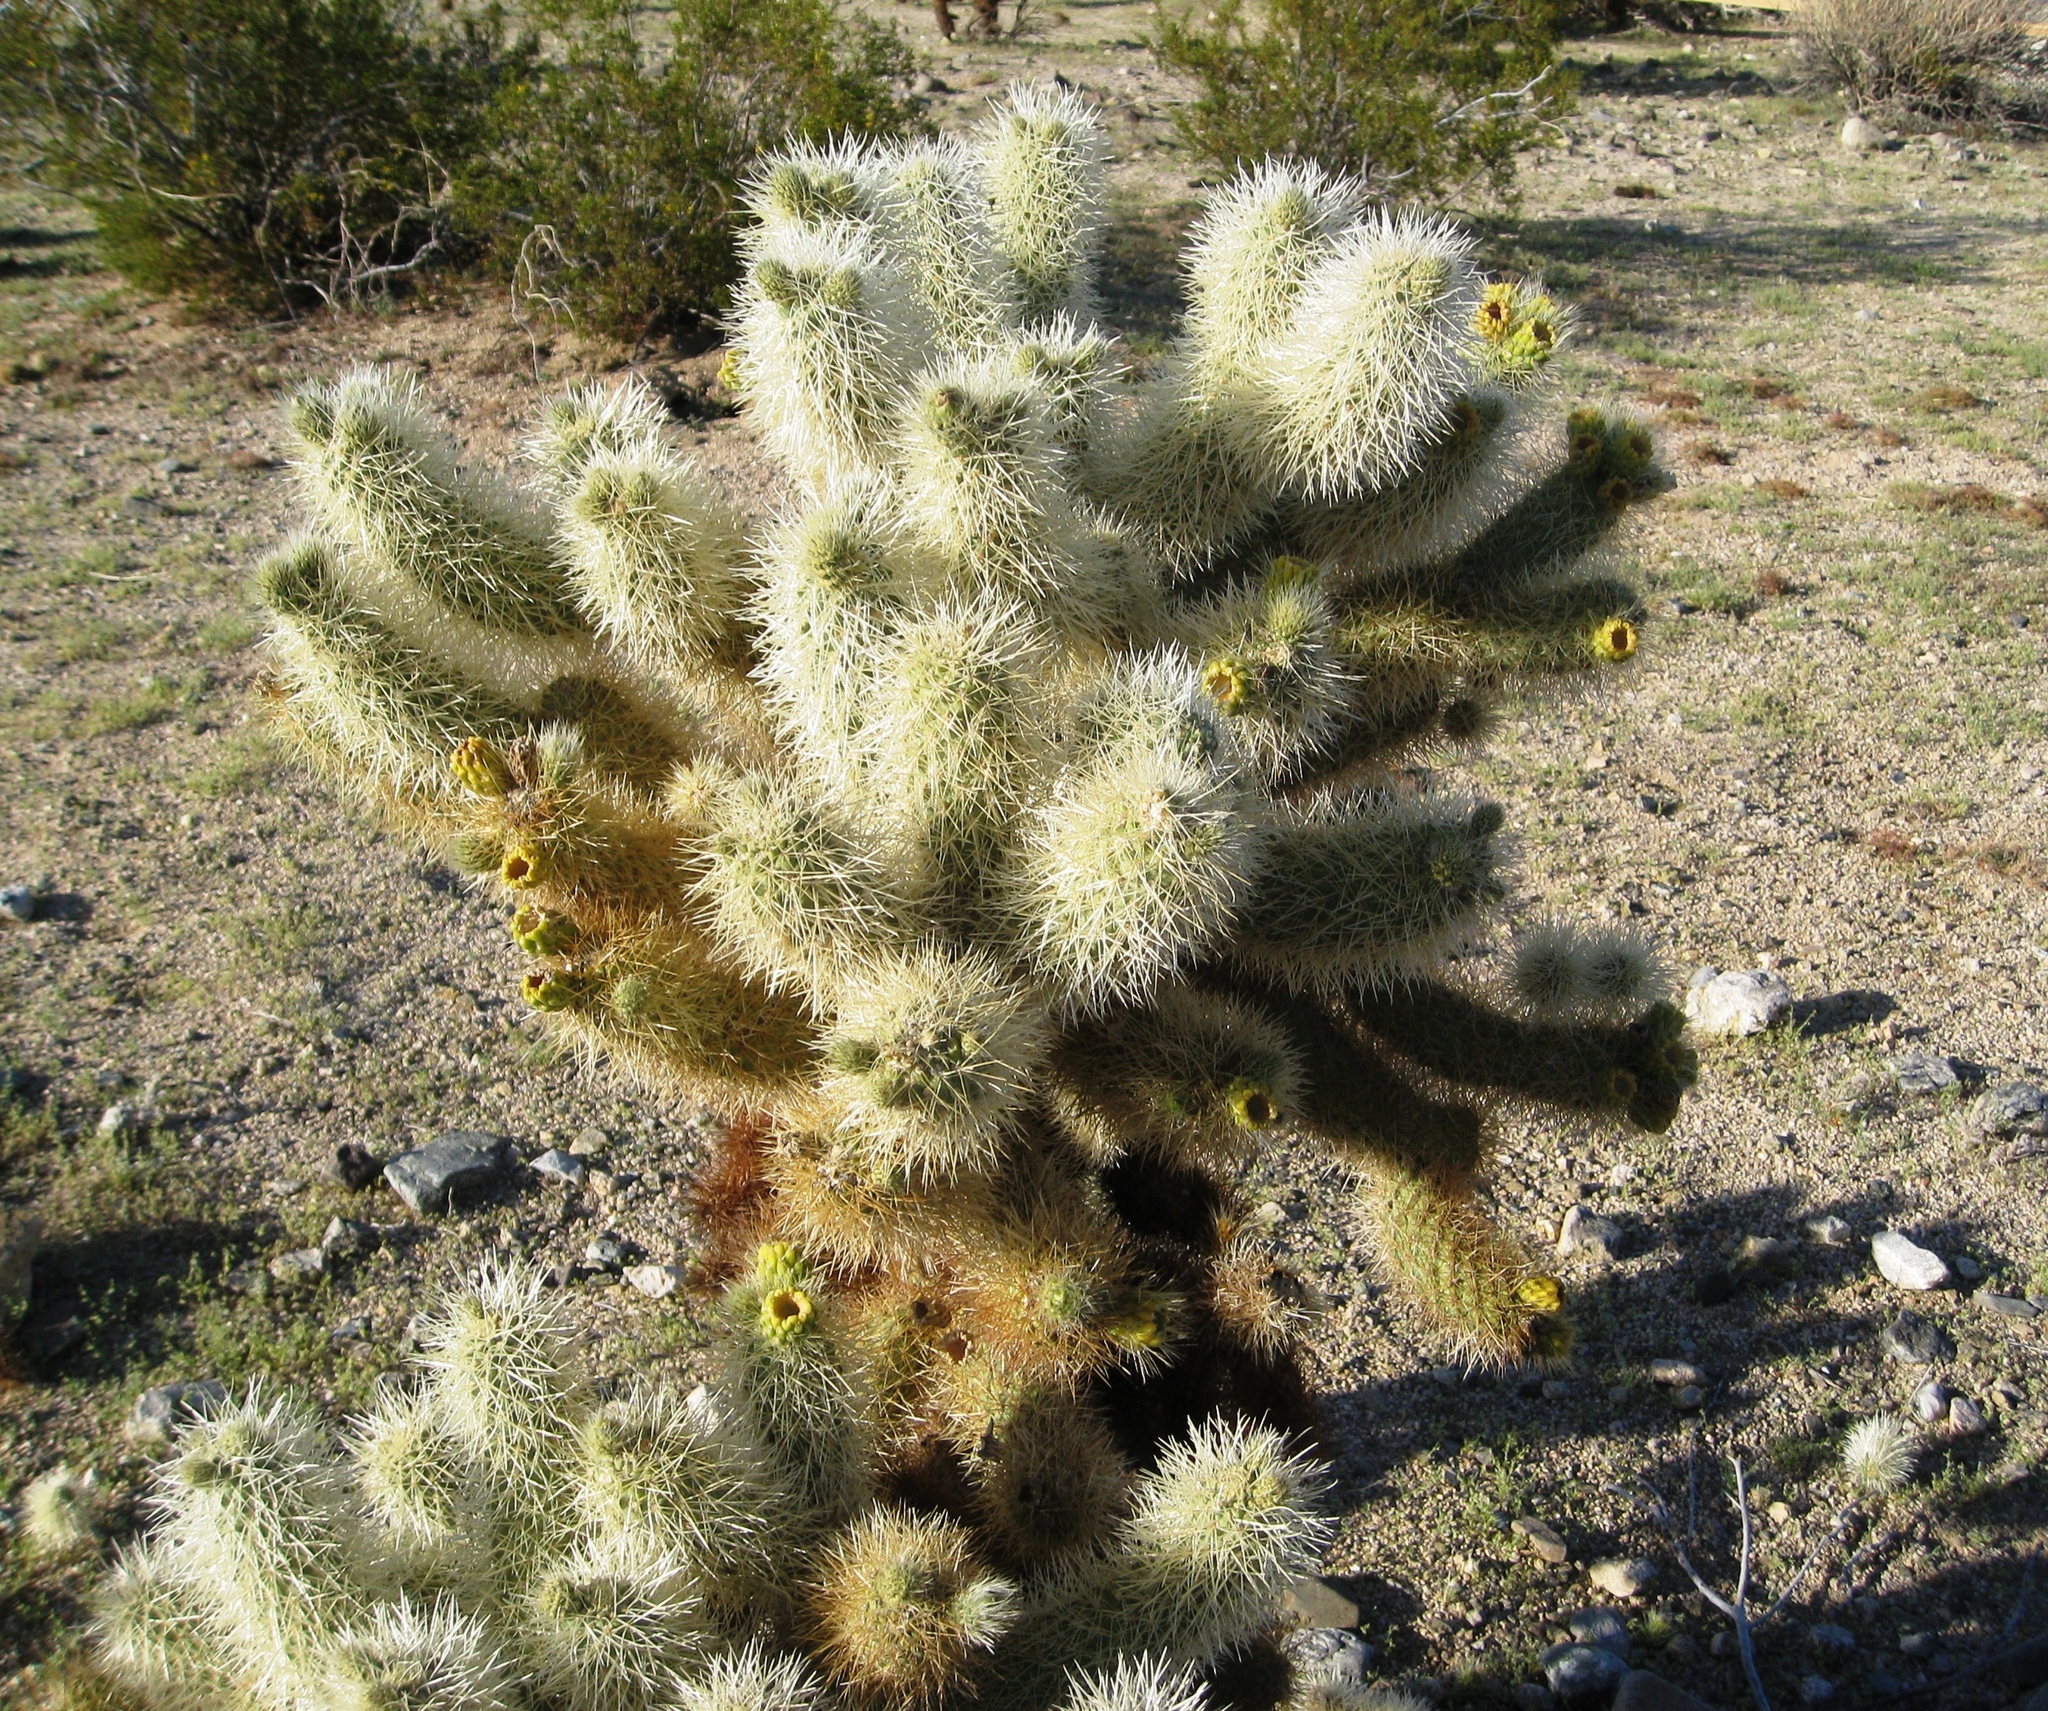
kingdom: Plantae
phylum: Tracheophyta
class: Magnoliopsida
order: Caryophyllales
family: Cactaceae
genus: Cylindropuntia
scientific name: Cylindropuntia fosbergii
